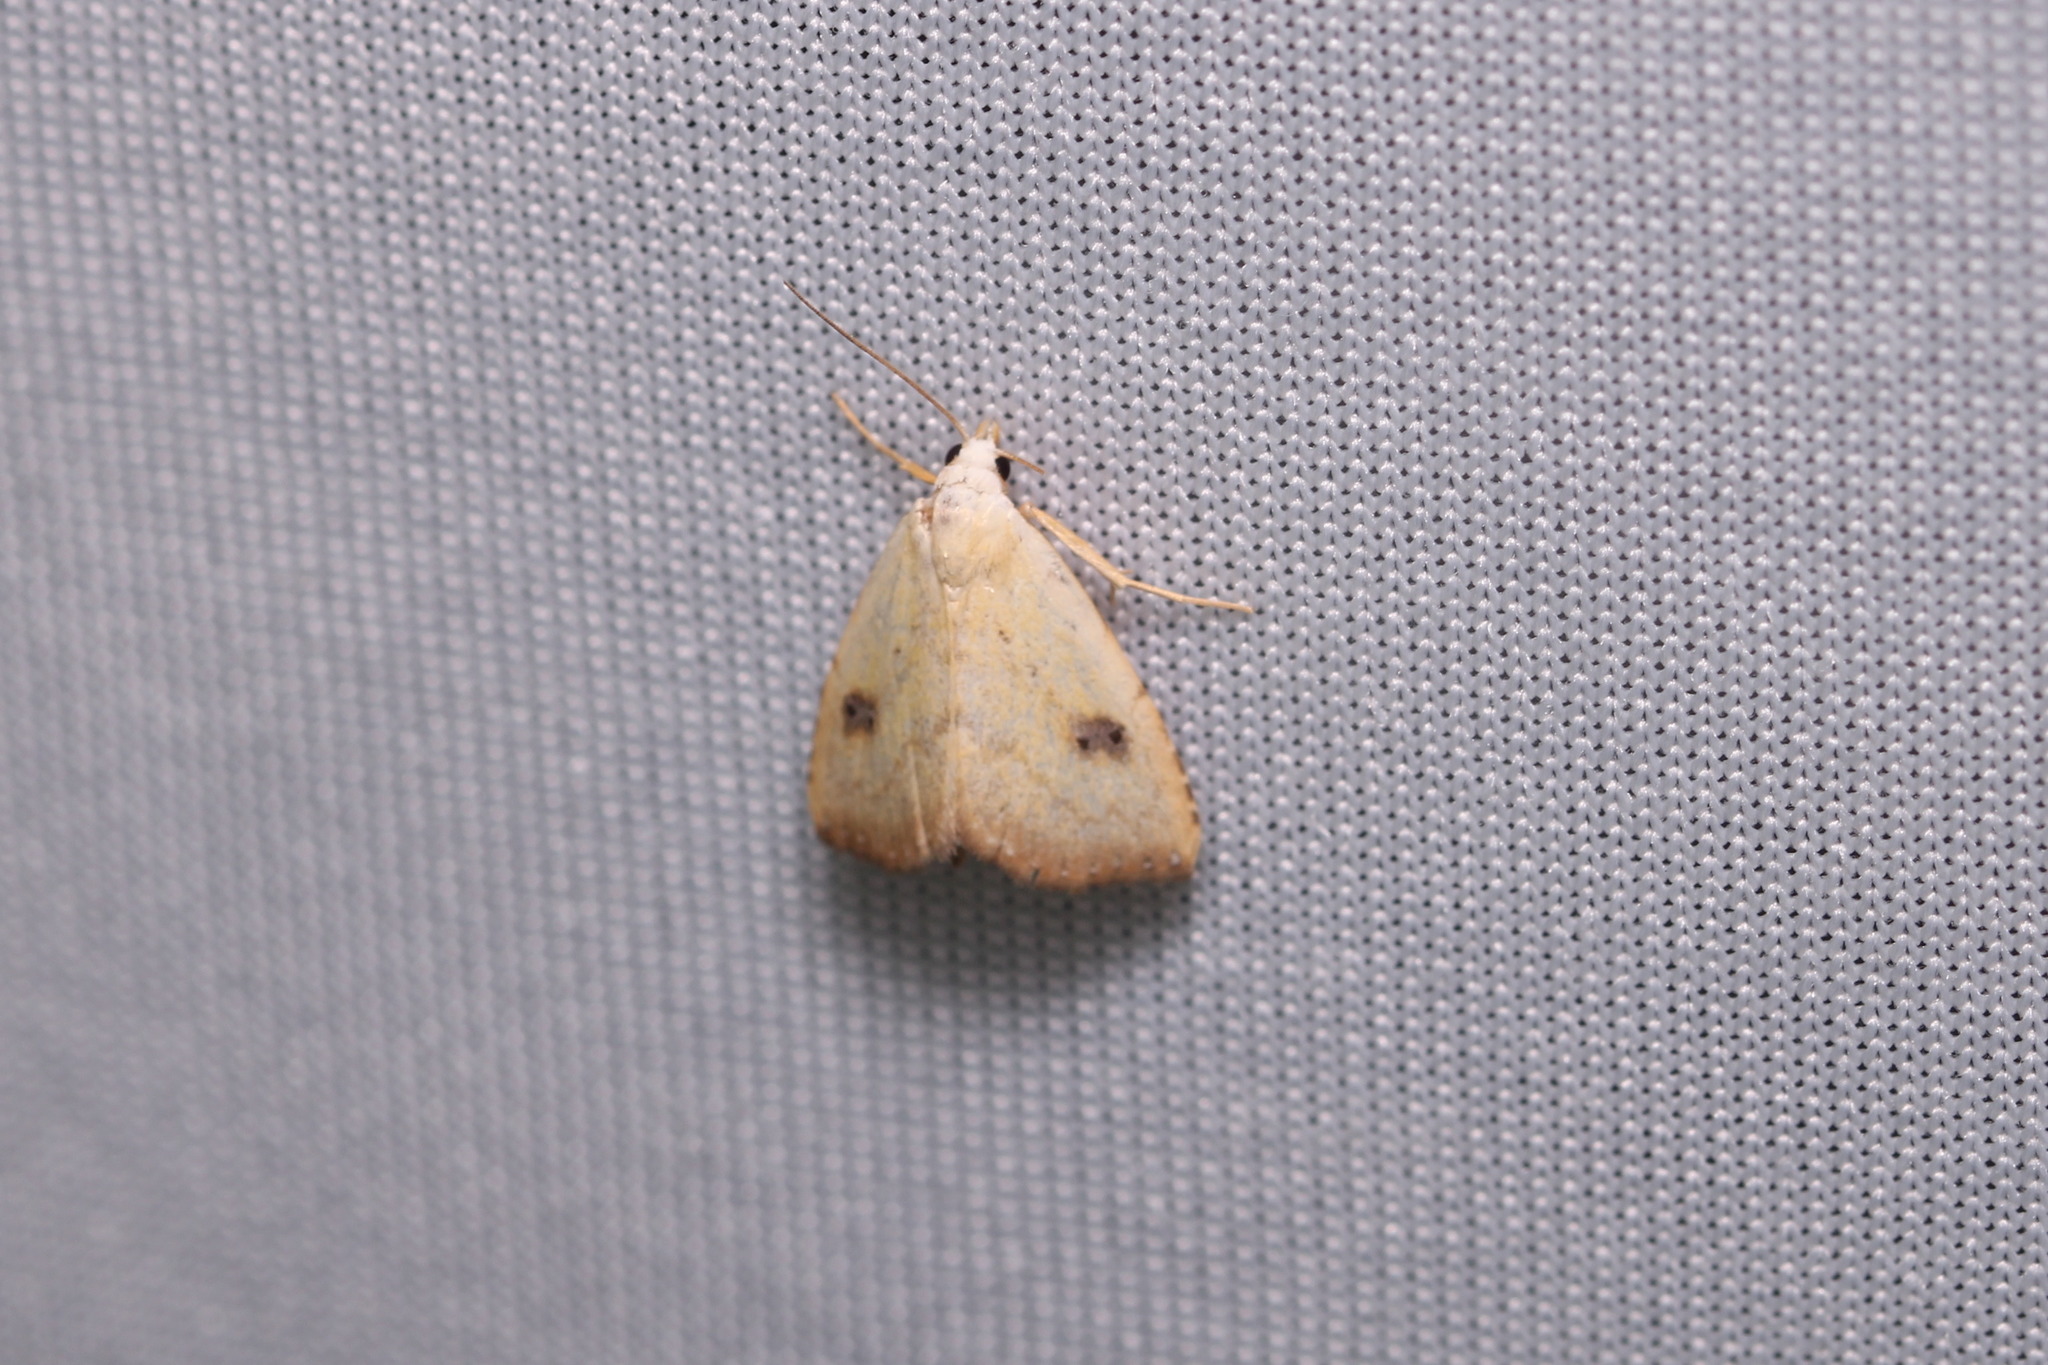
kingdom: Animalia
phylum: Arthropoda
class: Insecta
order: Lepidoptera
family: Erebidae
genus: Rivula
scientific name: Rivula sericealis
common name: Straw dot
